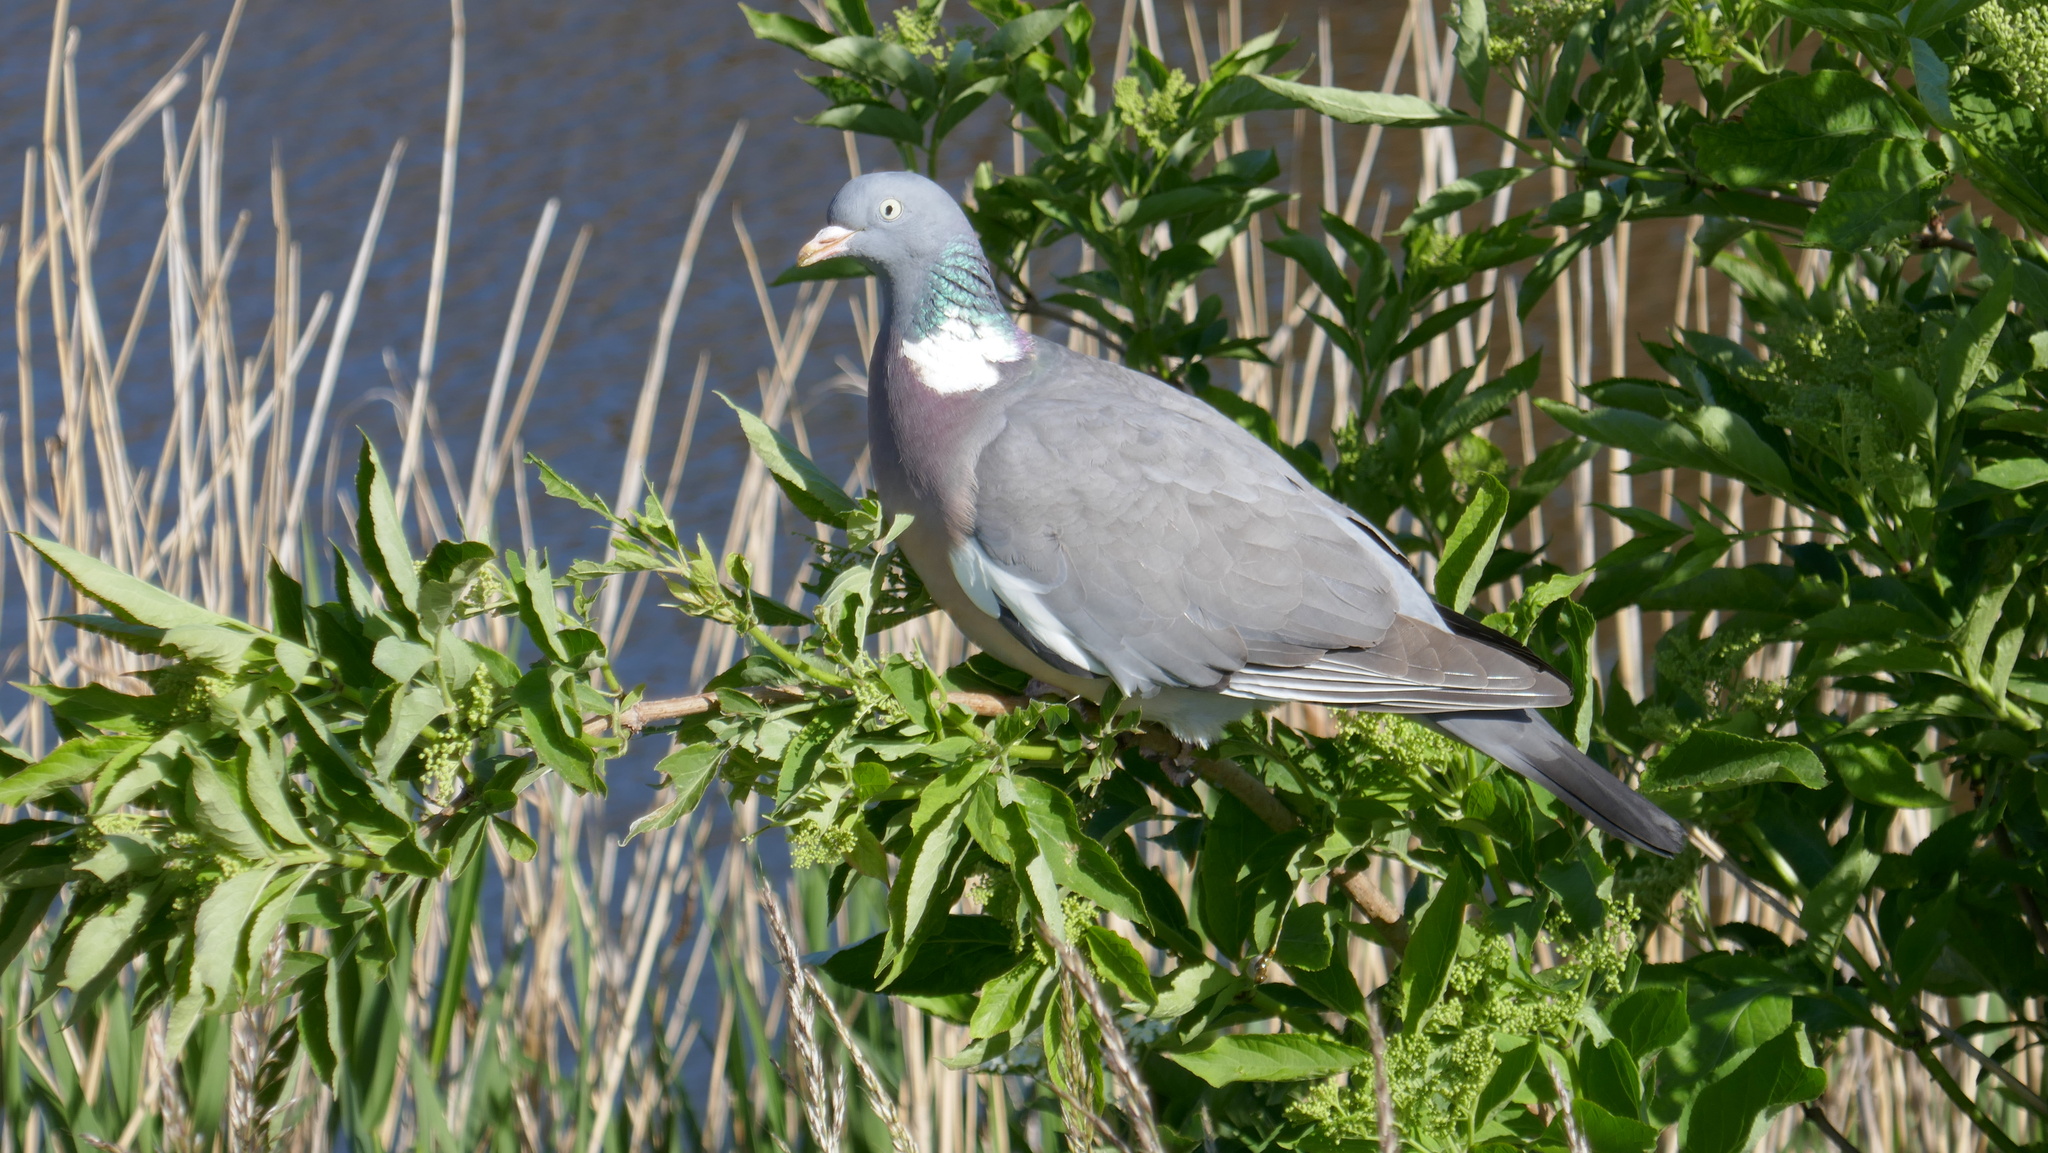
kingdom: Animalia
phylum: Chordata
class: Aves
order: Columbiformes
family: Columbidae
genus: Columba
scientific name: Columba palumbus
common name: Common wood pigeon
